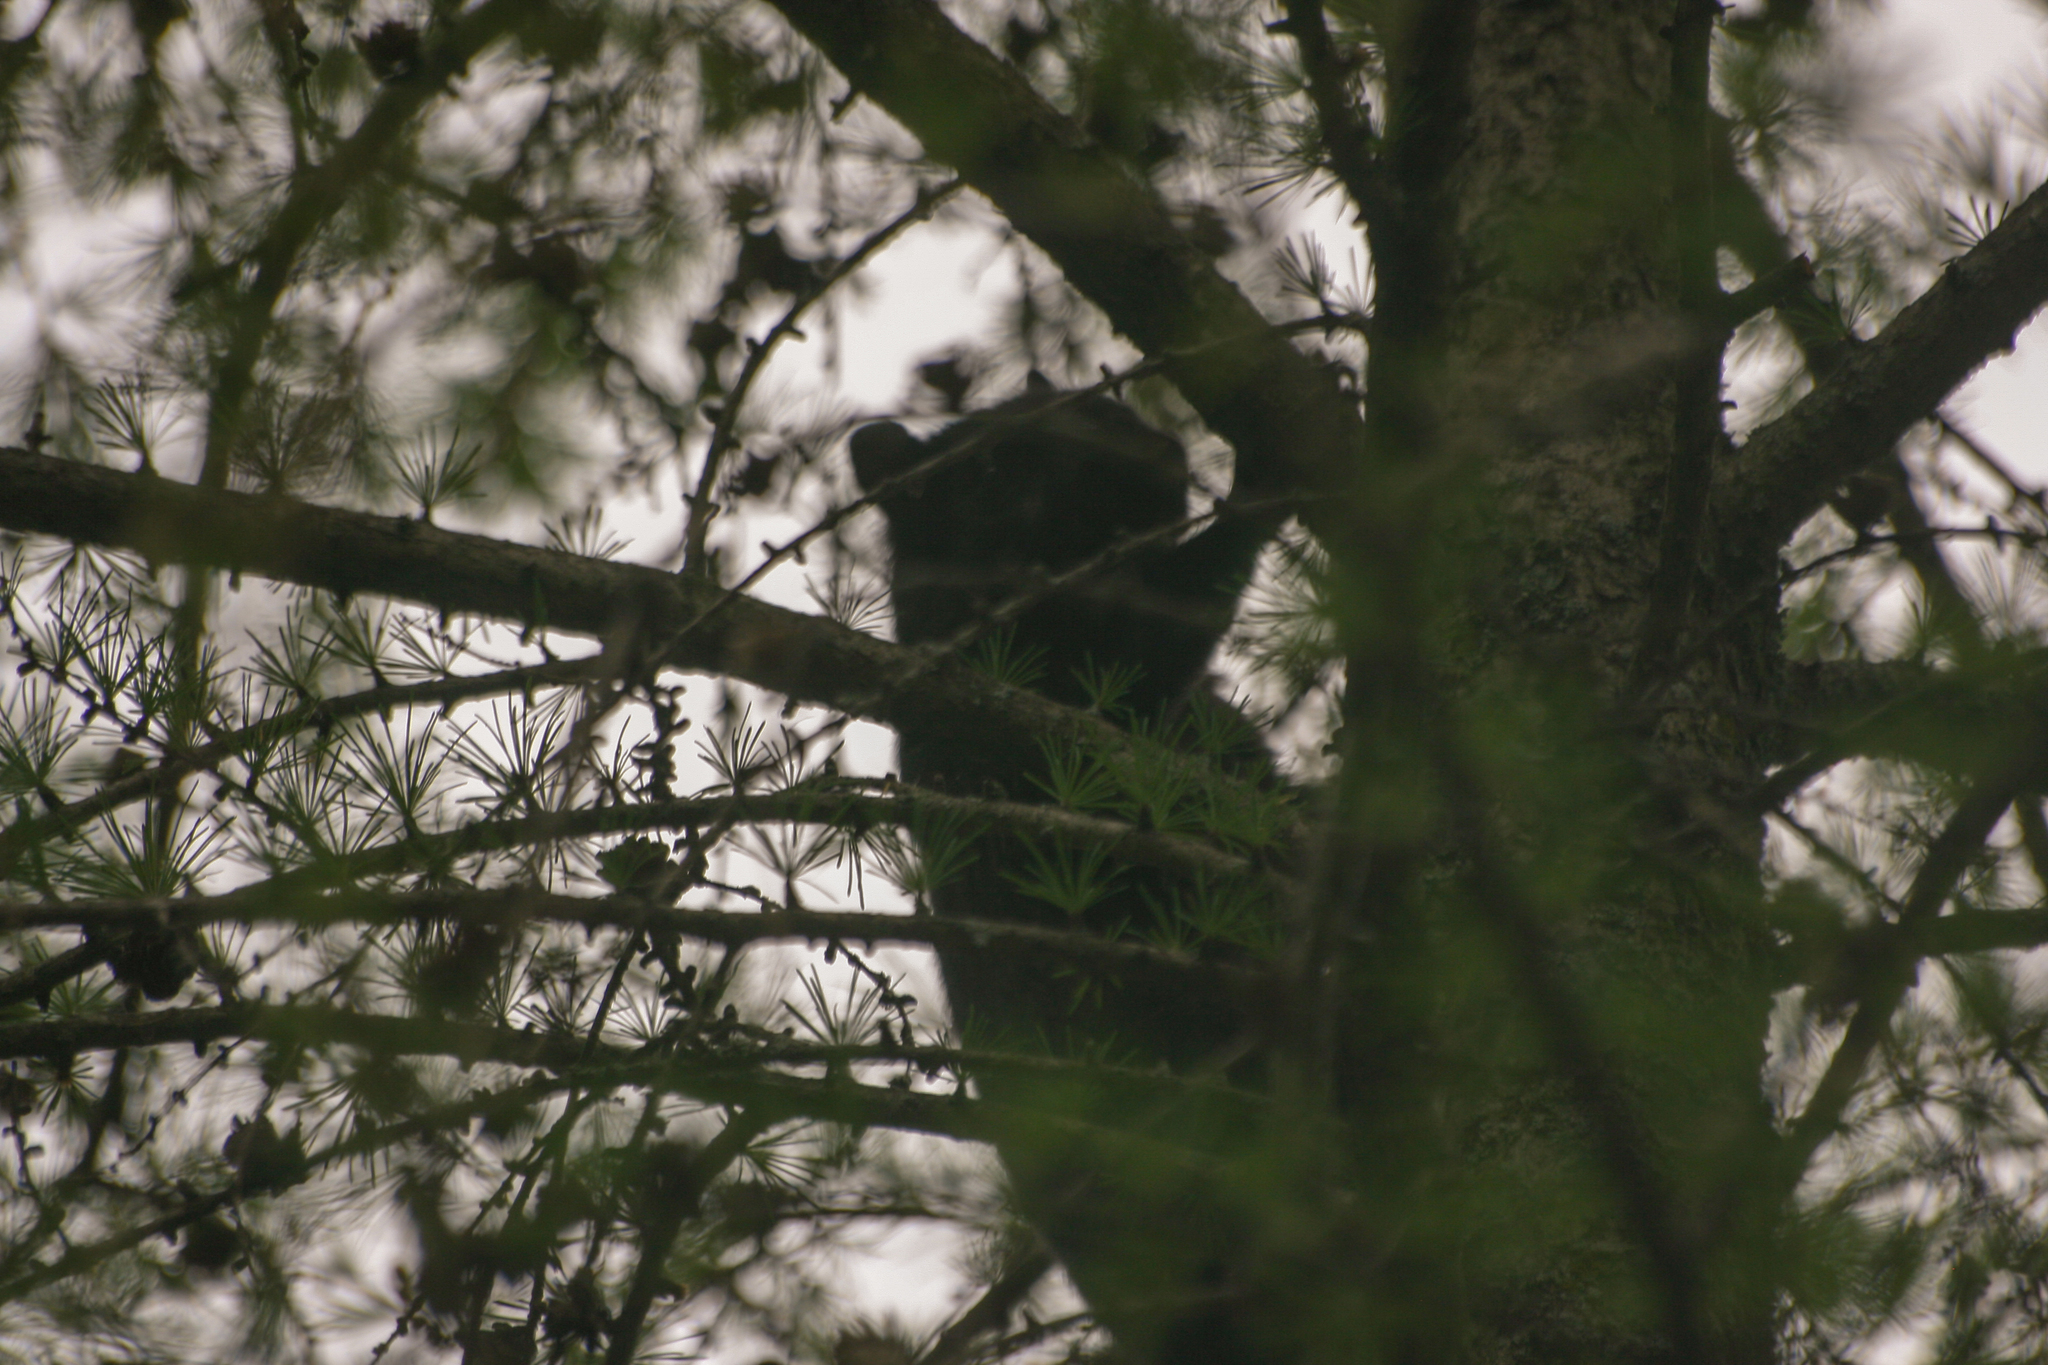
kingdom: Animalia
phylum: Chordata
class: Mammalia
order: Rodentia
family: Sciuridae
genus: Sciurus
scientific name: Sciurus carolinensis
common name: Eastern gray squirrel
